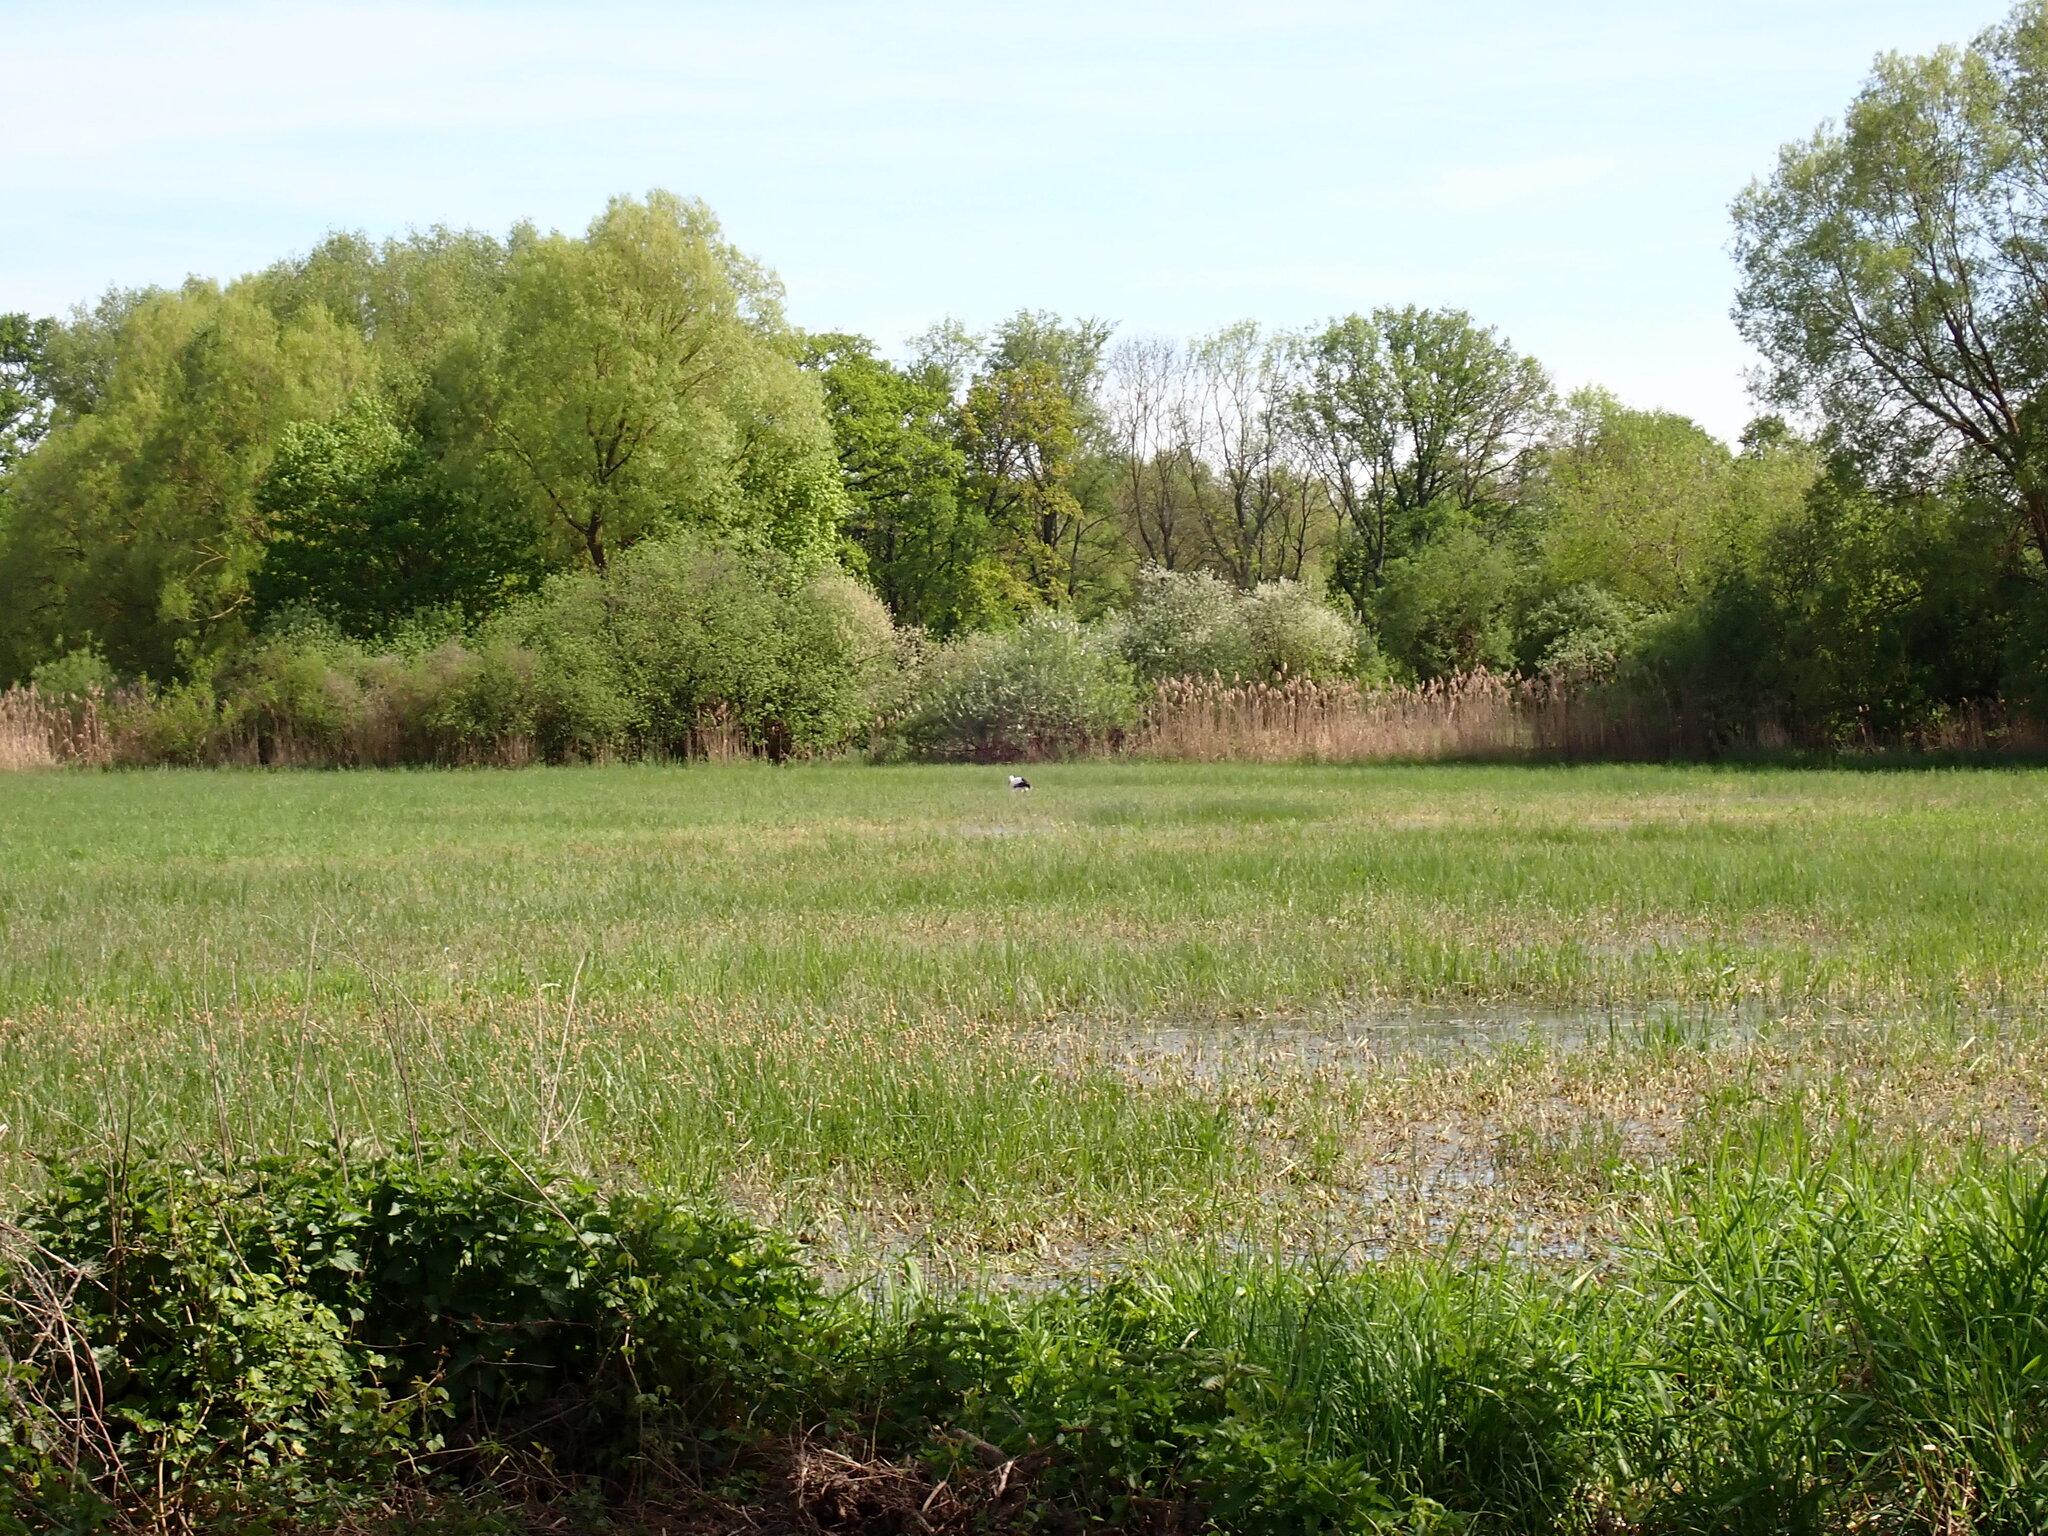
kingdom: Animalia
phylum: Chordata
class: Aves
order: Ciconiiformes
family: Ciconiidae
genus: Ciconia
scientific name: Ciconia ciconia
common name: White stork
